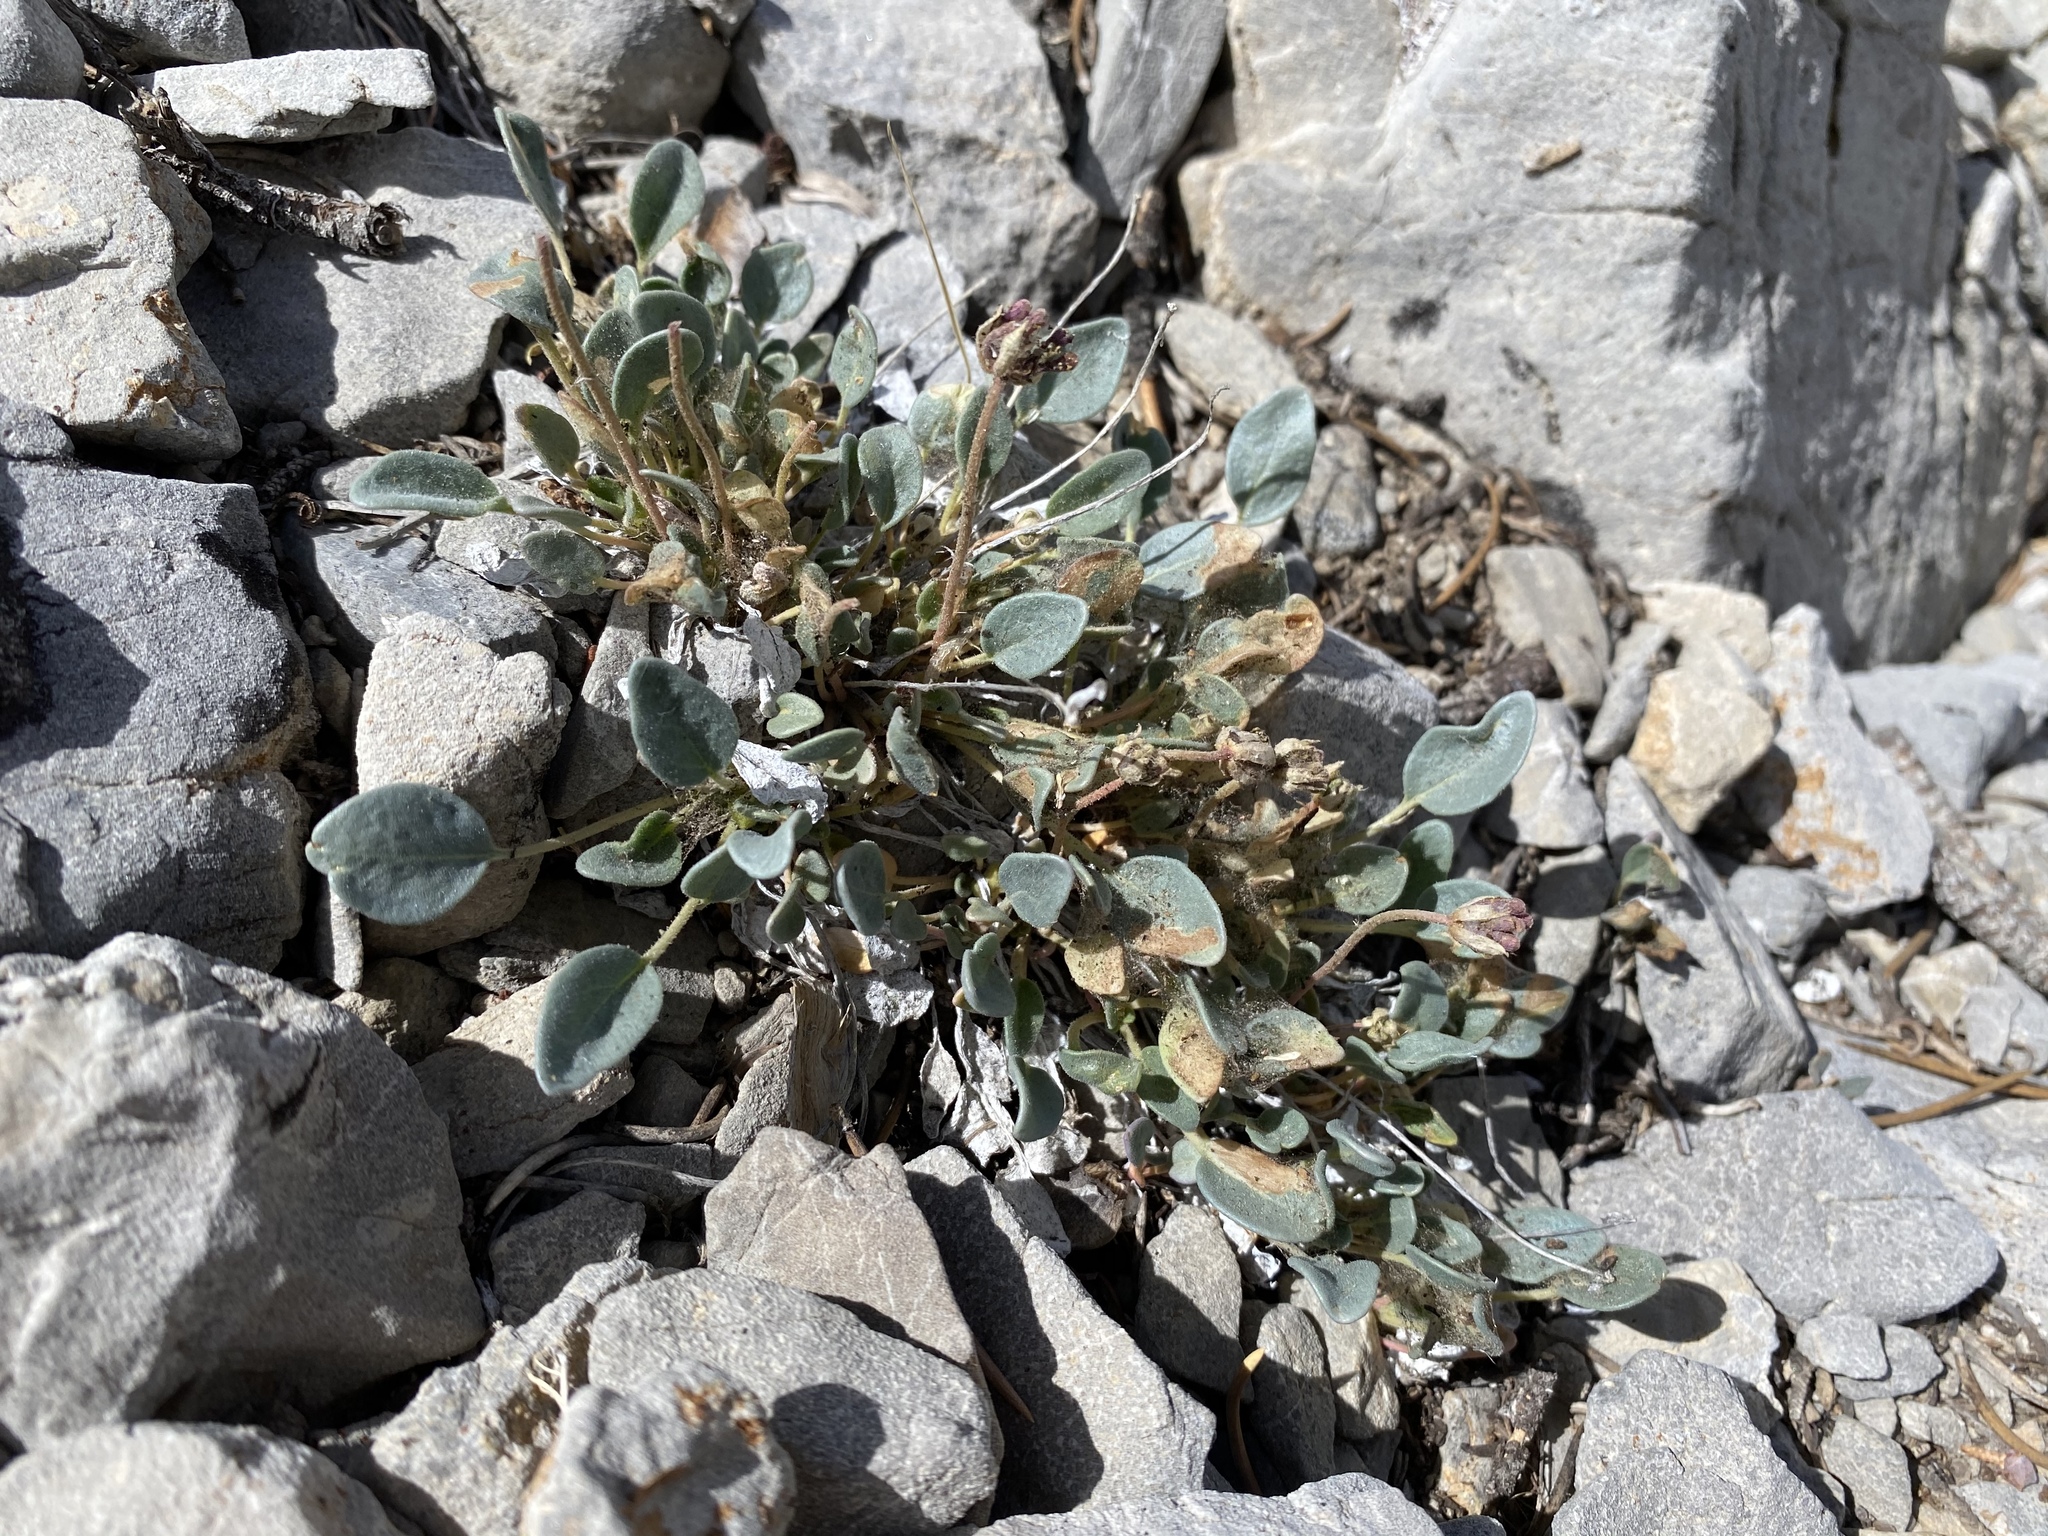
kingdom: Plantae
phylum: Tracheophyta
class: Magnoliopsida
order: Caryophyllales
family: Nyctaginaceae
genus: Abronia
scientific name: Abronia nana
